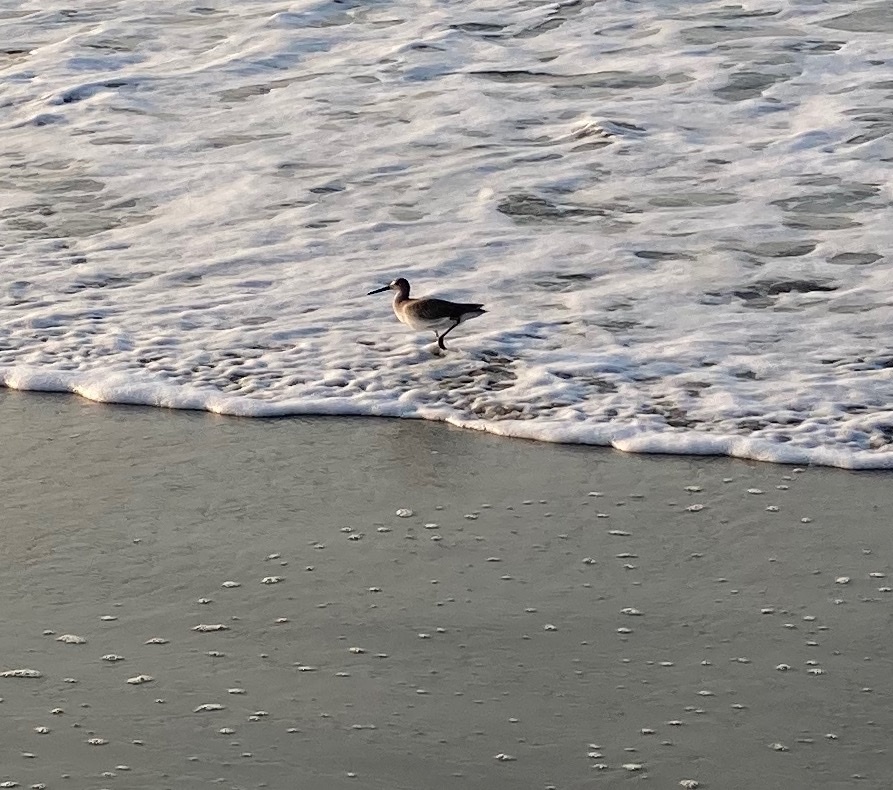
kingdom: Animalia
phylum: Chordata
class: Aves
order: Charadriiformes
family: Scolopacidae
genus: Tringa
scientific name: Tringa semipalmata
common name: Willet
